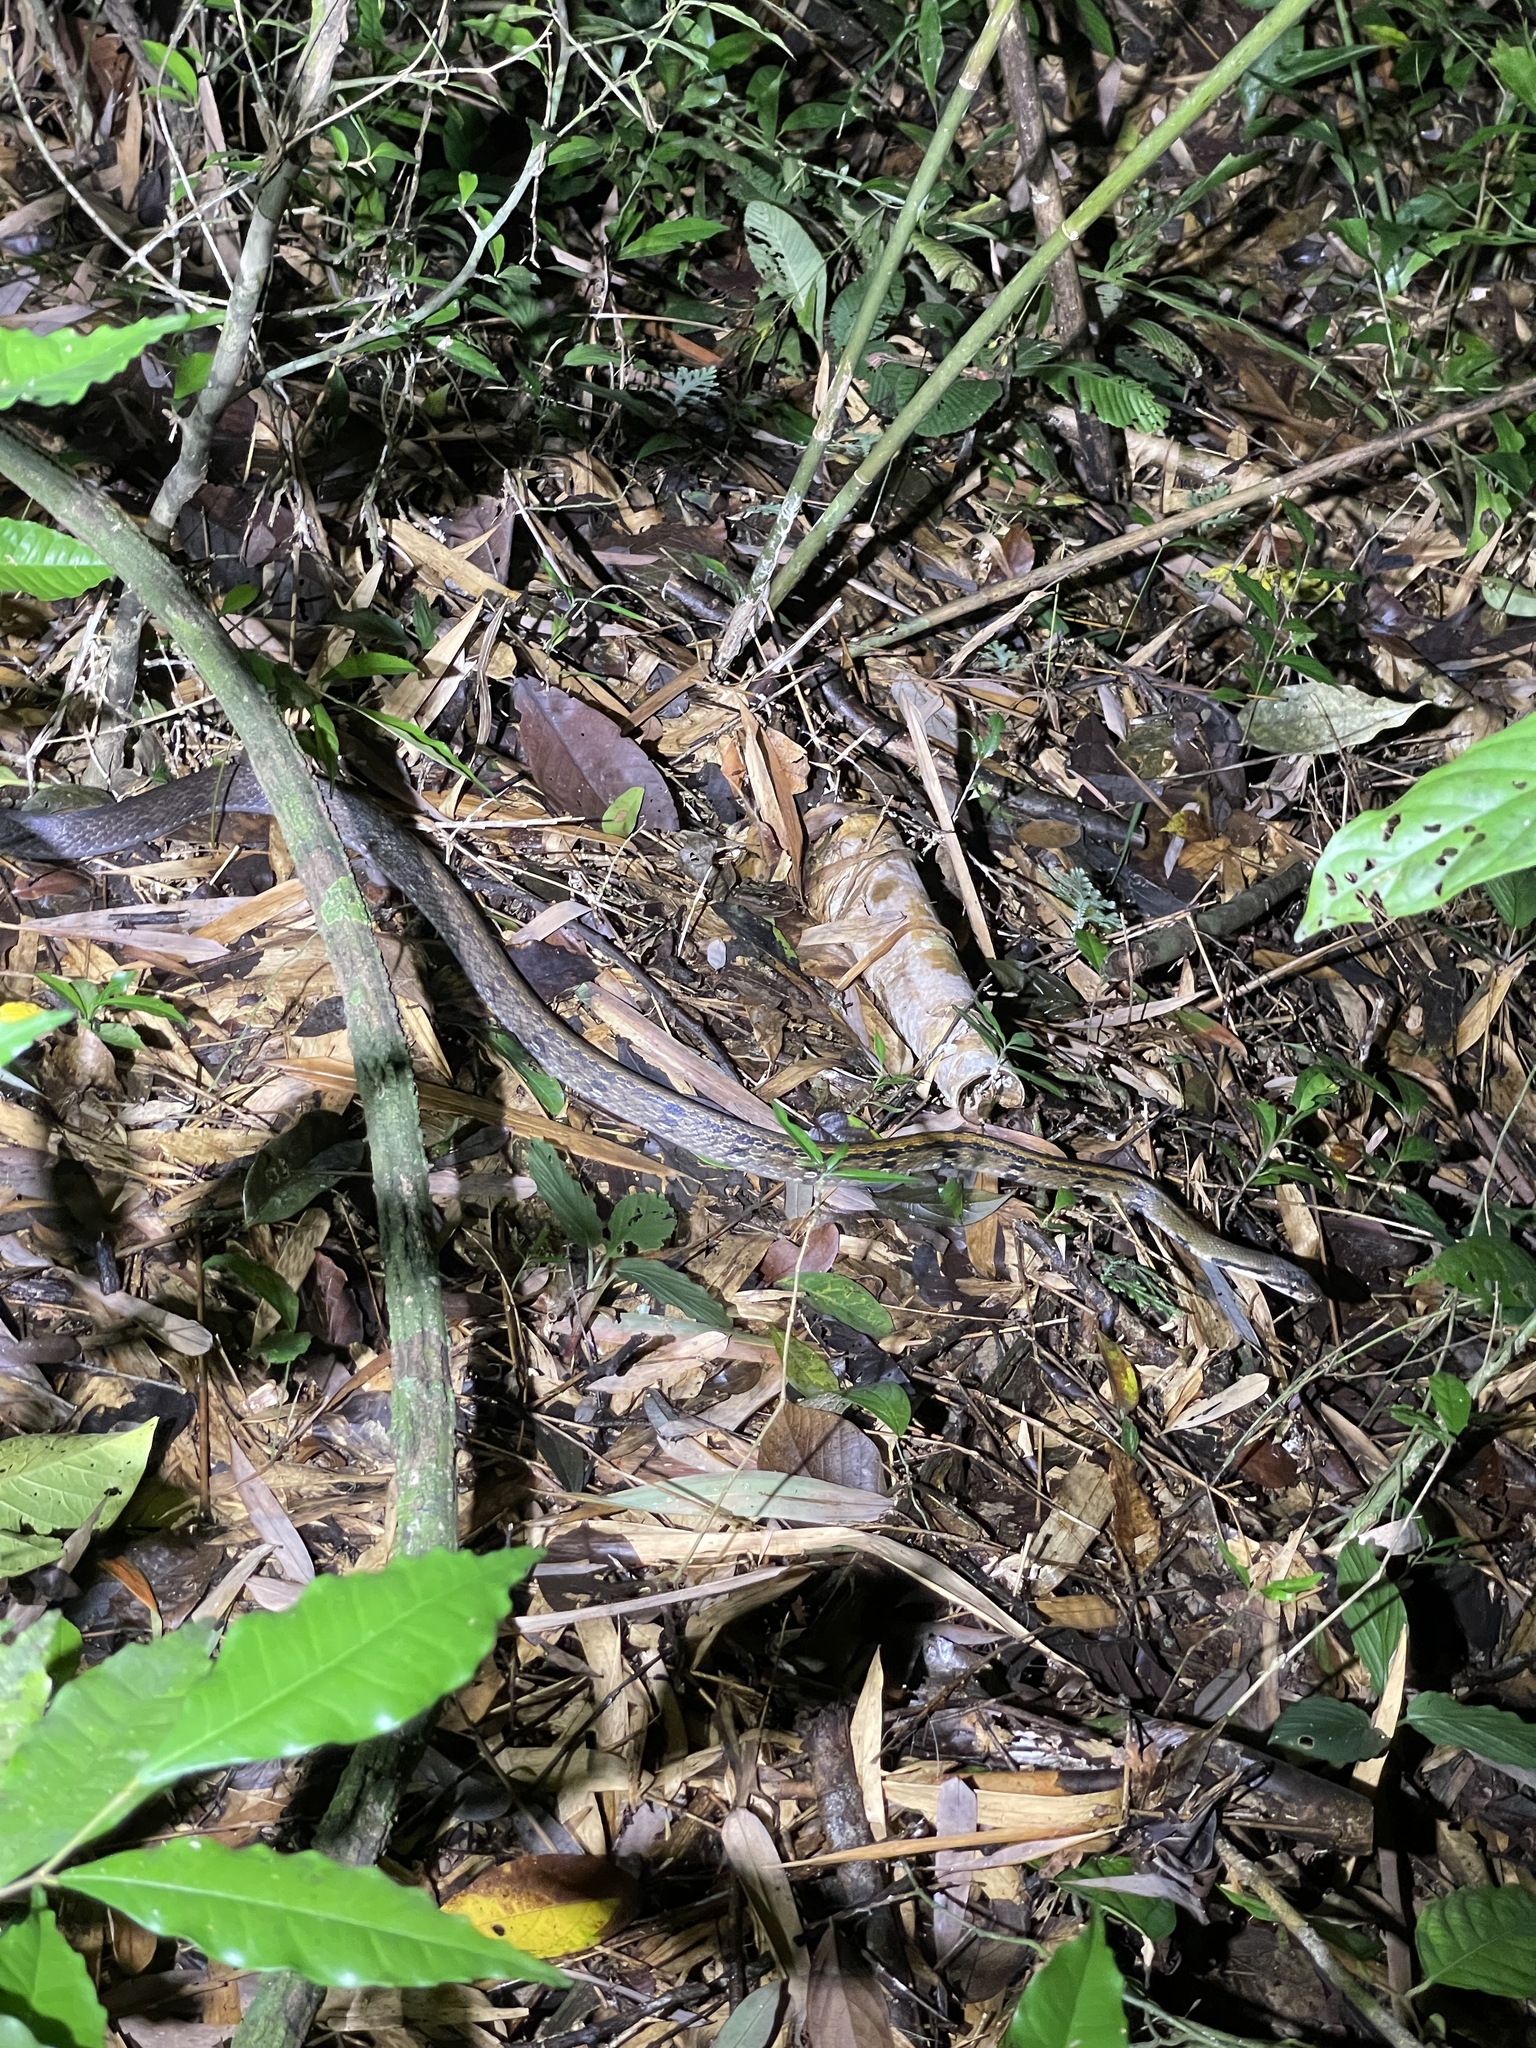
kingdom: Animalia
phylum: Chordata
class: Squamata
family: Colubridae
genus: Coelognathus
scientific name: Coelognathus flavolineatus
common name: Black copper rat snake
